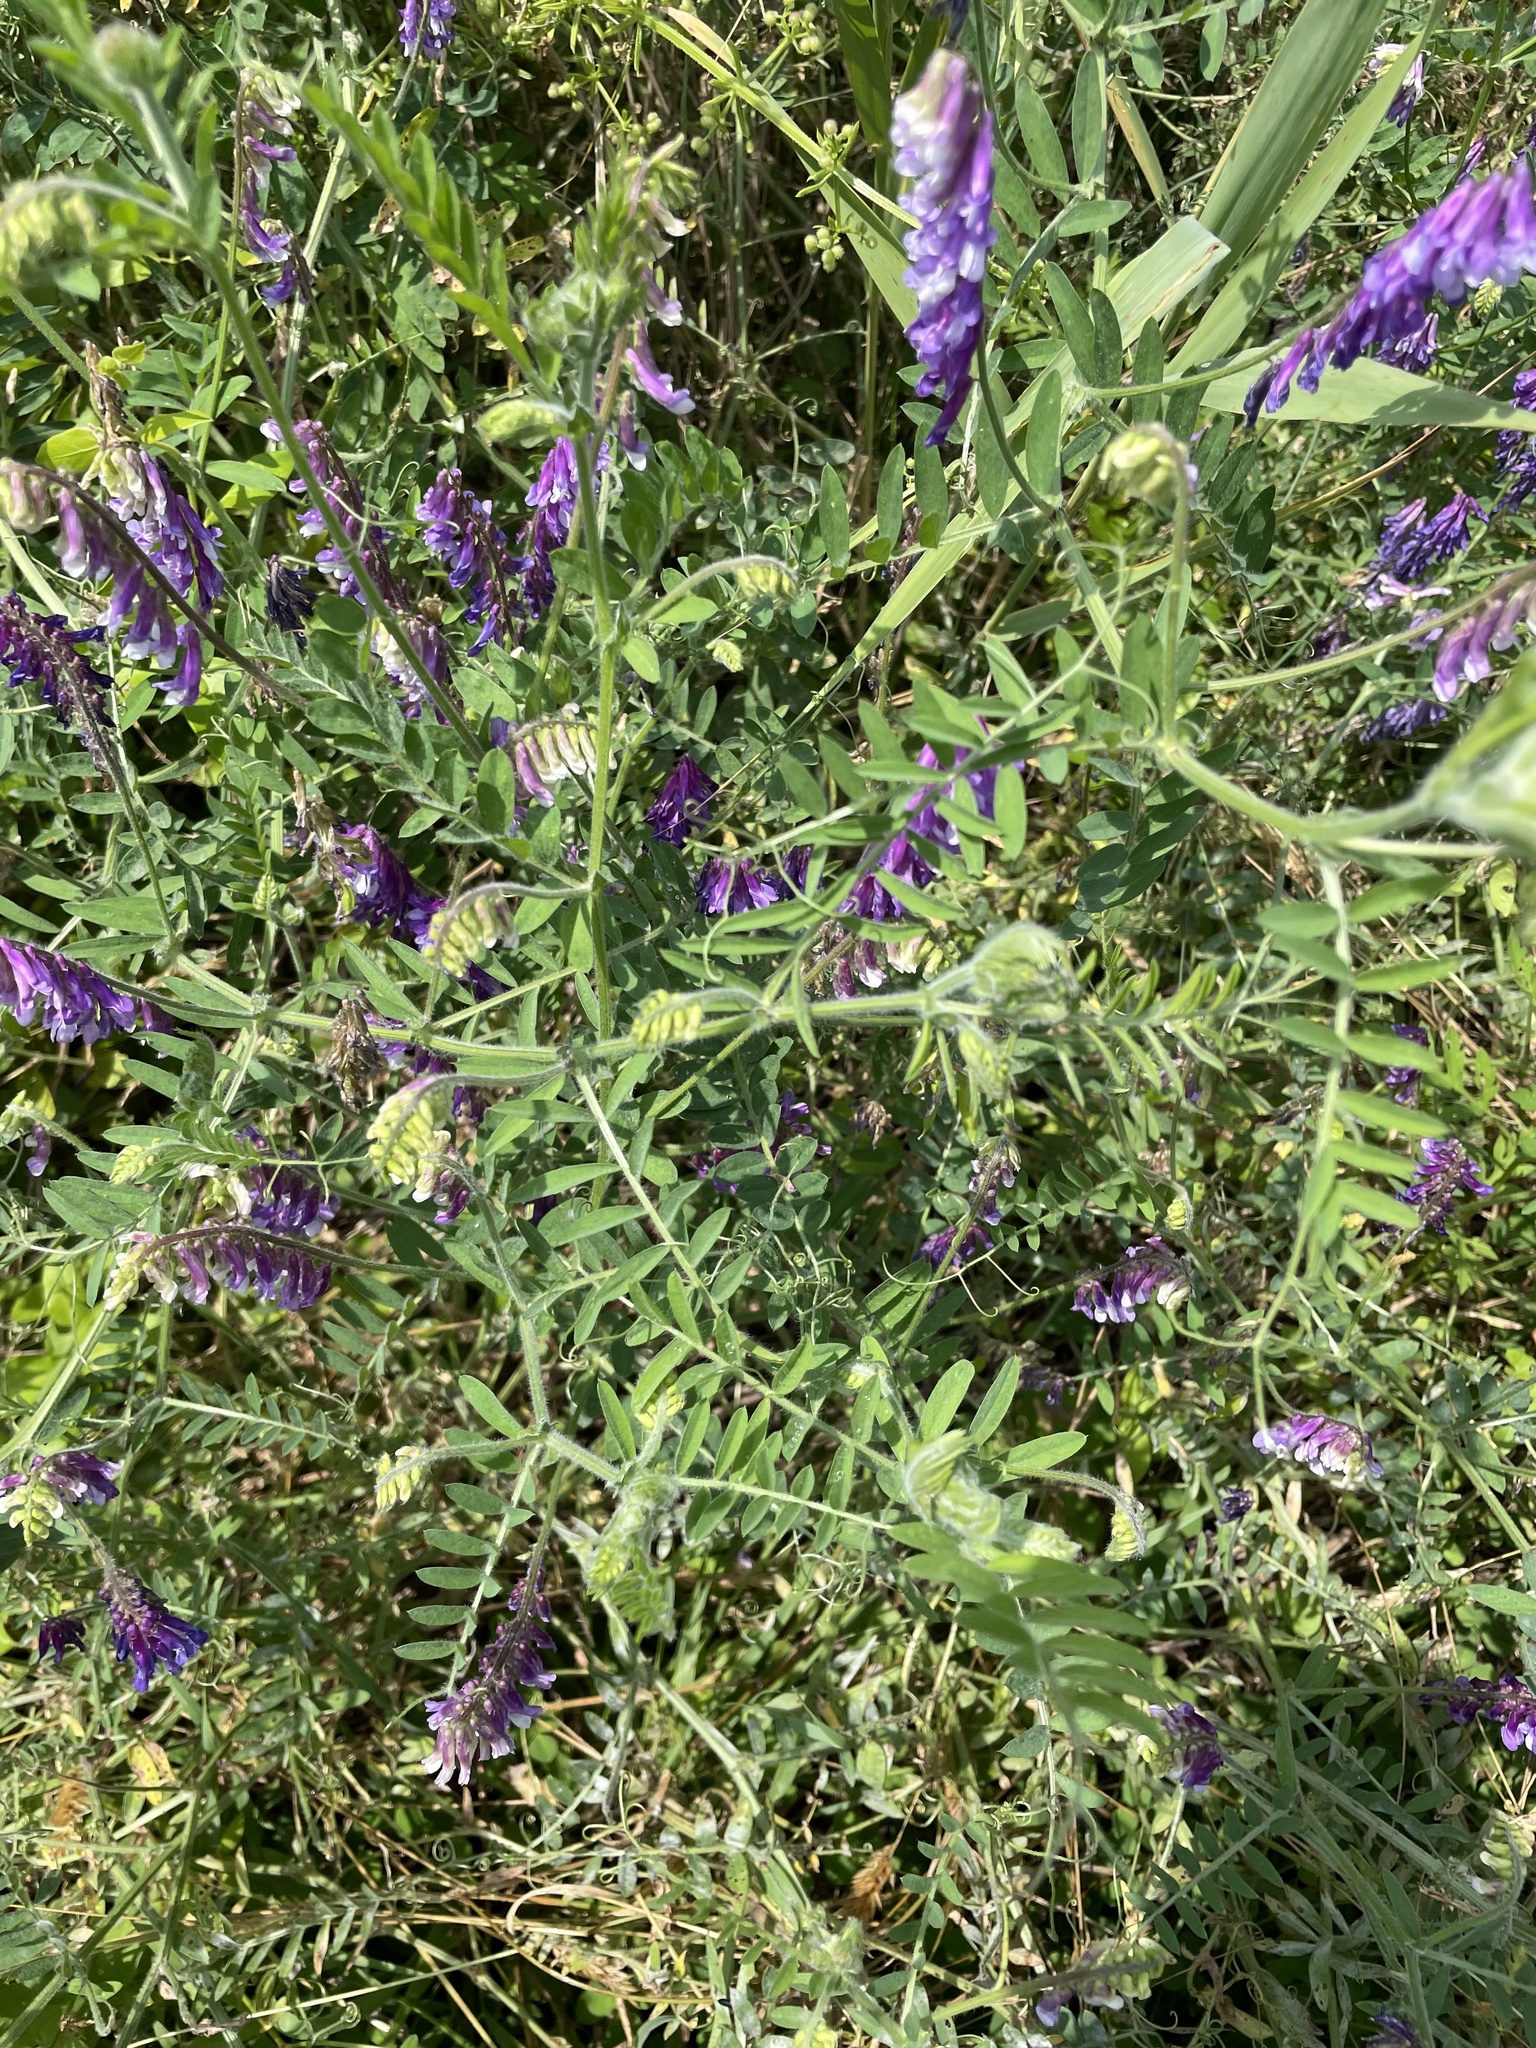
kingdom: Plantae
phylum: Tracheophyta
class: Magnoliopsida
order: Fabales
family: Fabaceae
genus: Vicia
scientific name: Vicia villosa
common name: Fodder vetch
